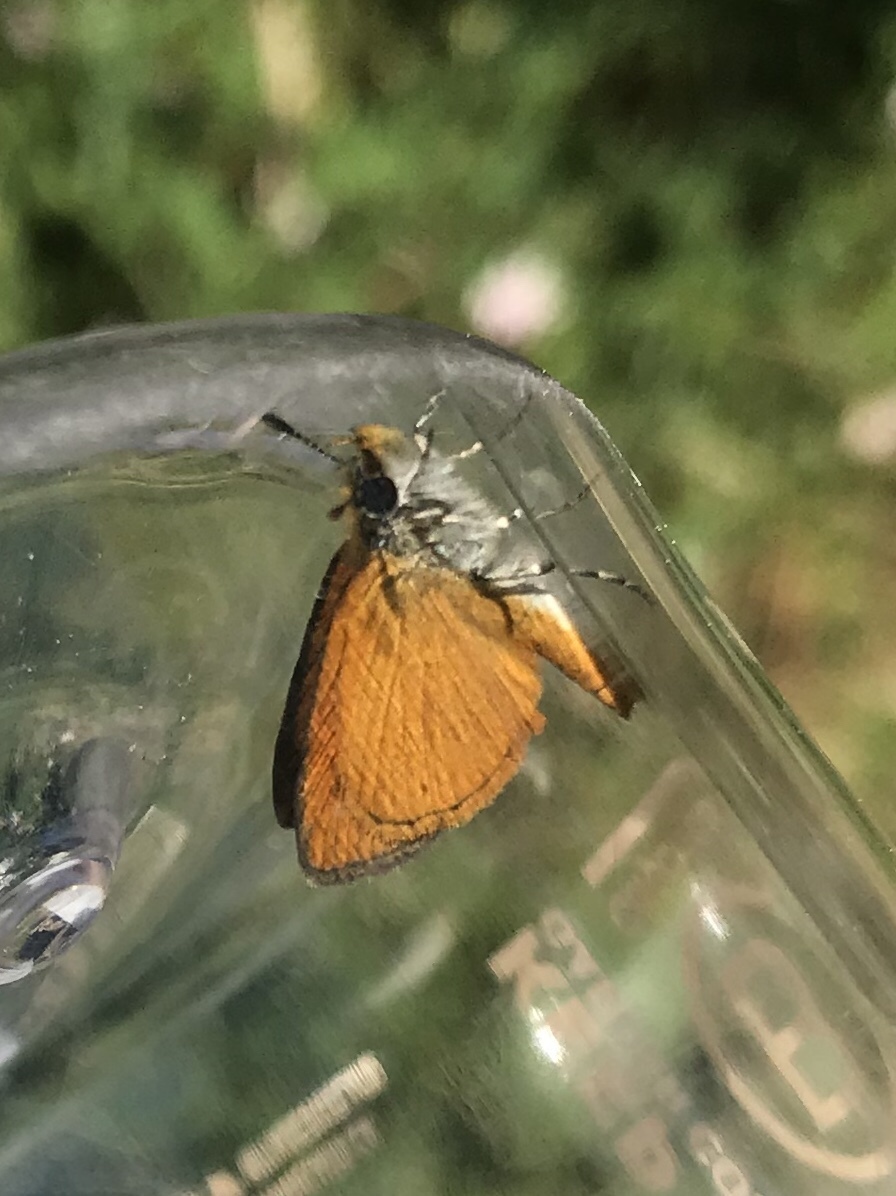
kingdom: Animalia
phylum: Arthropoda
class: Insecta
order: Lepidoptera
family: Hesperiidae
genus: Ancyloxypha
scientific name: Ancyloxypha numitor
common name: Least skipper
